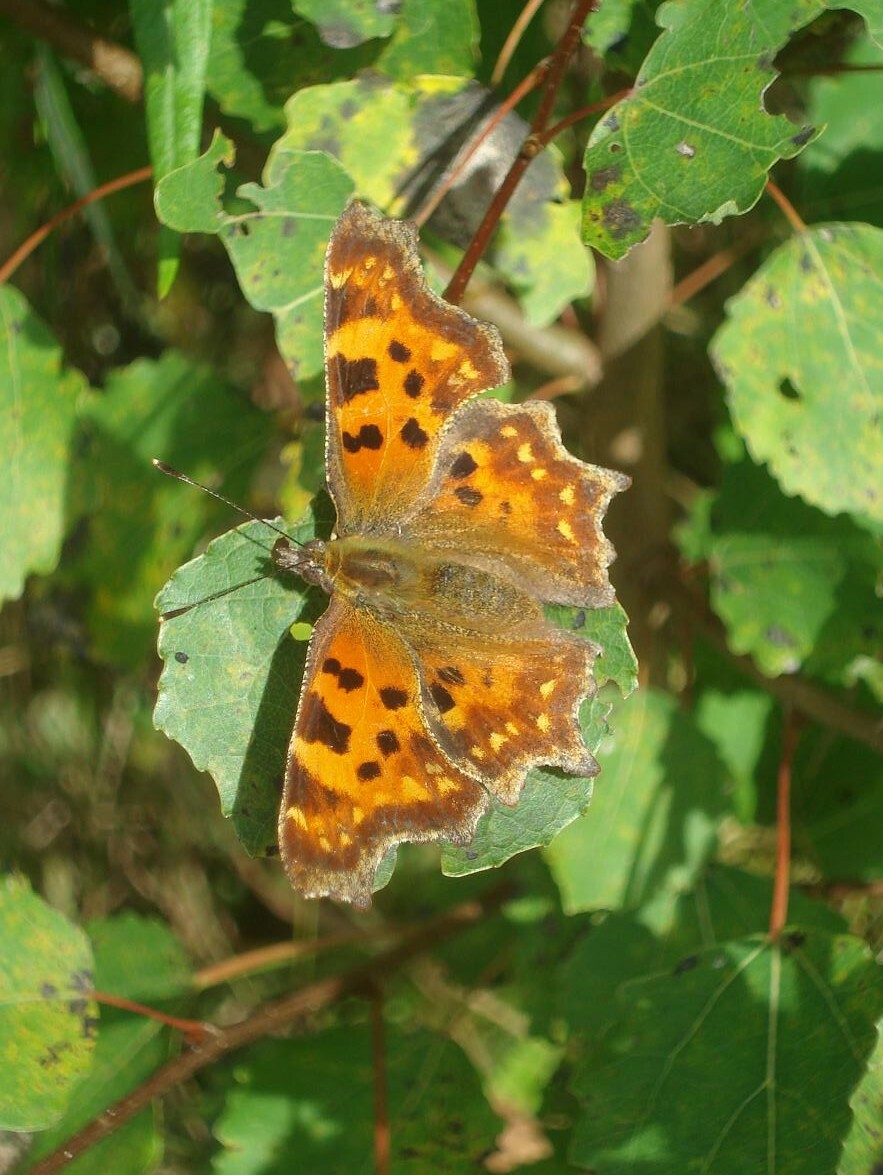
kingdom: Animalia
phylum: Arthropoda
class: Insecta
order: Lepidoptera
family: Nymphalidae
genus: Polygonia
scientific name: Polygonia c-album
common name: Comma
